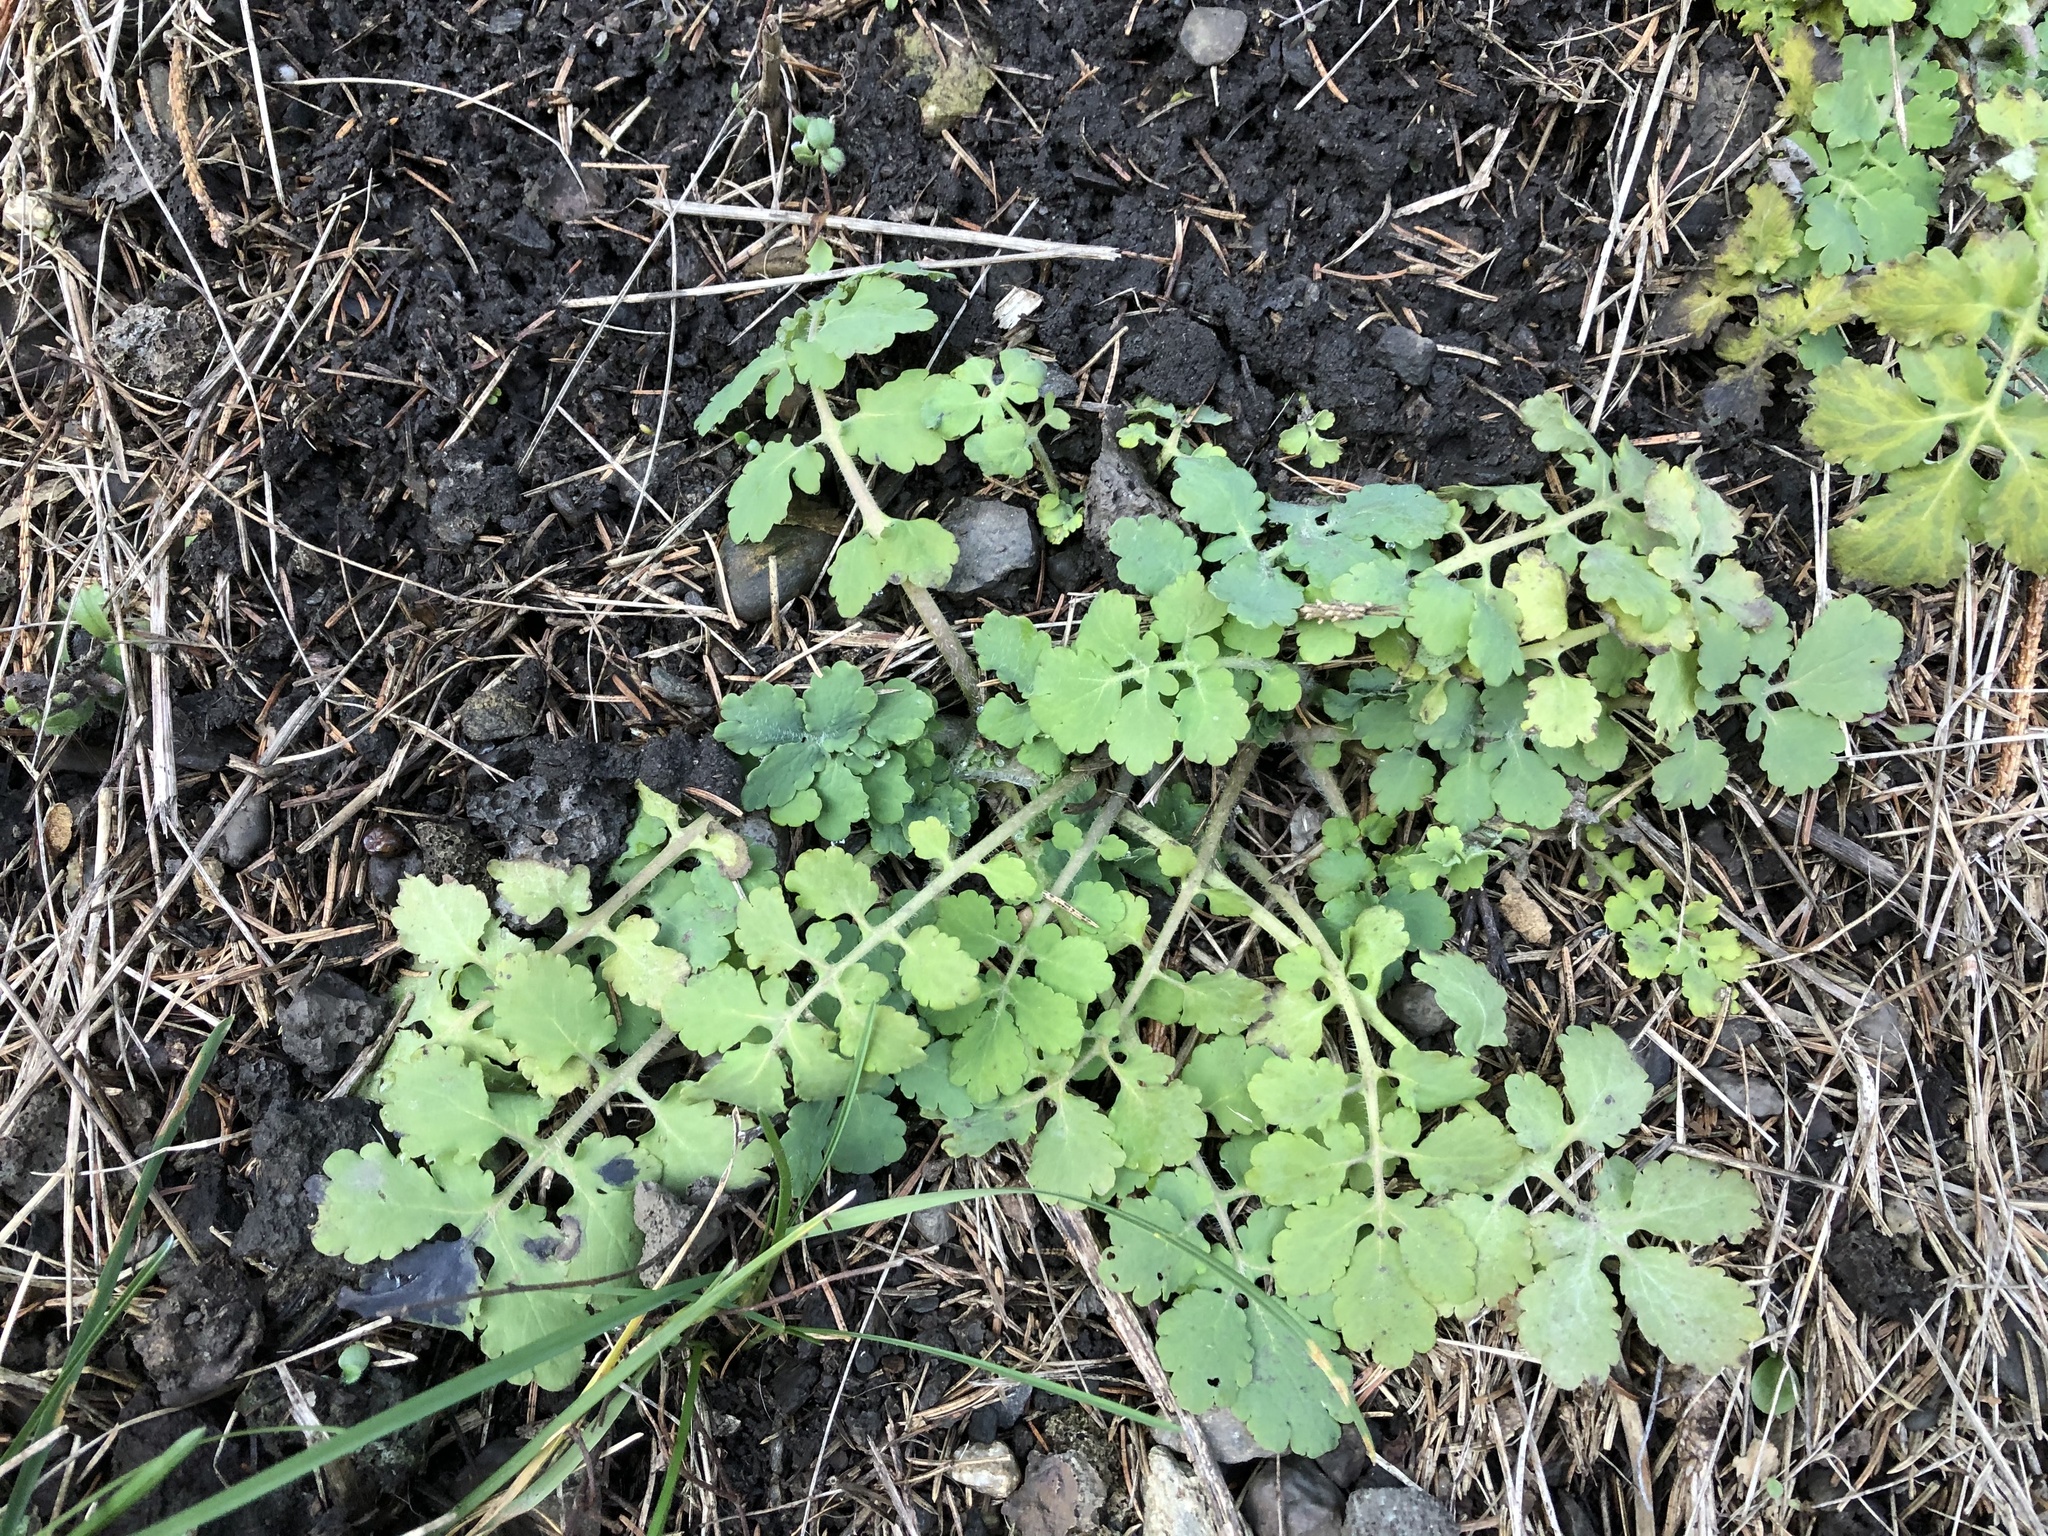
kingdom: Plantae
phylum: Tracheophyta
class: Magnoliopsida
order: Ranunculales
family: Papaveraceae
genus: Chelidonium
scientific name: Chelidonium majus
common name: Greater celandine
